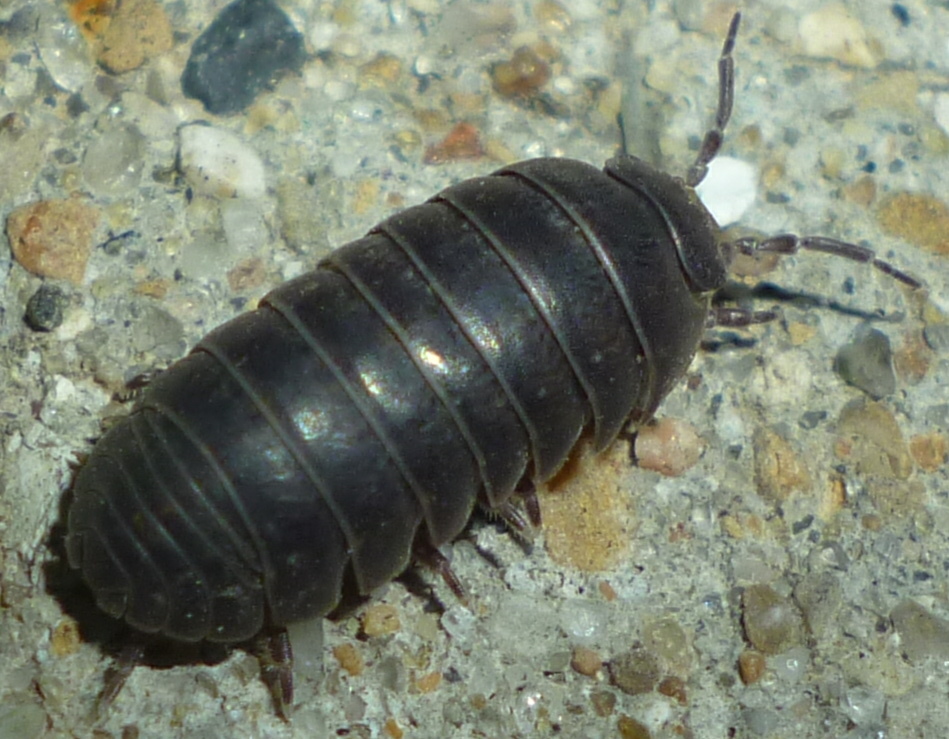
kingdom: Animalia
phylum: Arthropoda
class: Malacostraca
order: Isopoda
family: Armadillidiidae
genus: Armadillidium
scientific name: Armadillidium vulgare
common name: Common pill woodlouse
